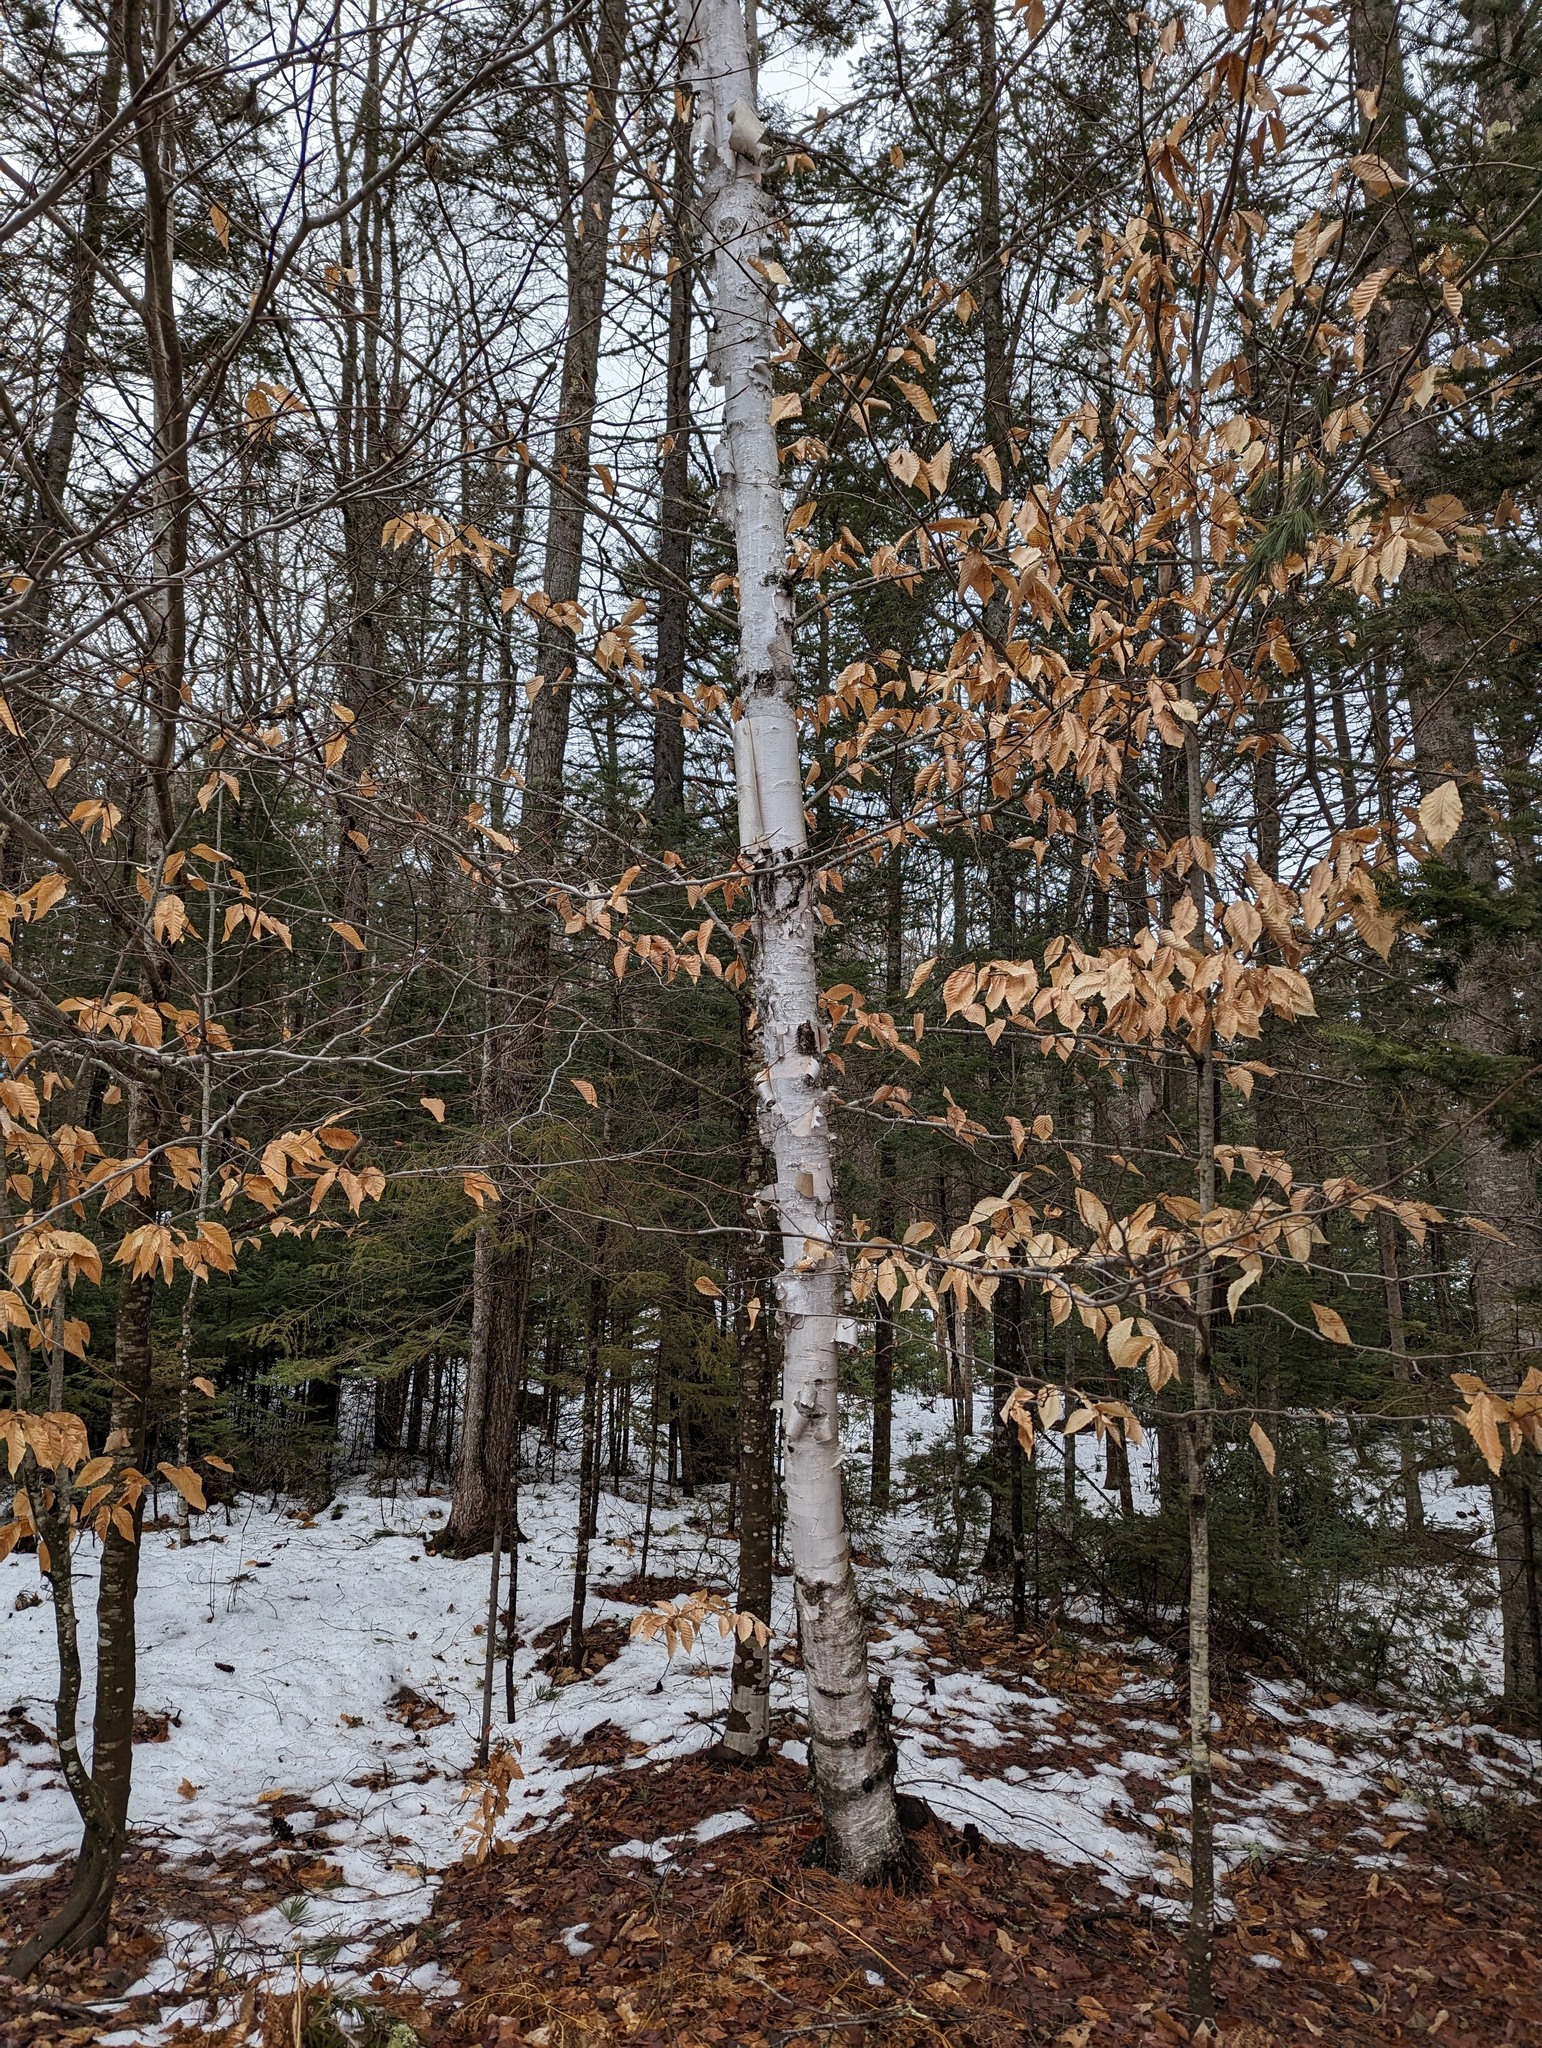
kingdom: Plantae
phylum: Tracheophyta
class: Magnoliopsida
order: Fagales
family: Betulaceae
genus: Betula
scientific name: Betula papyrifera
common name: Paper birch
